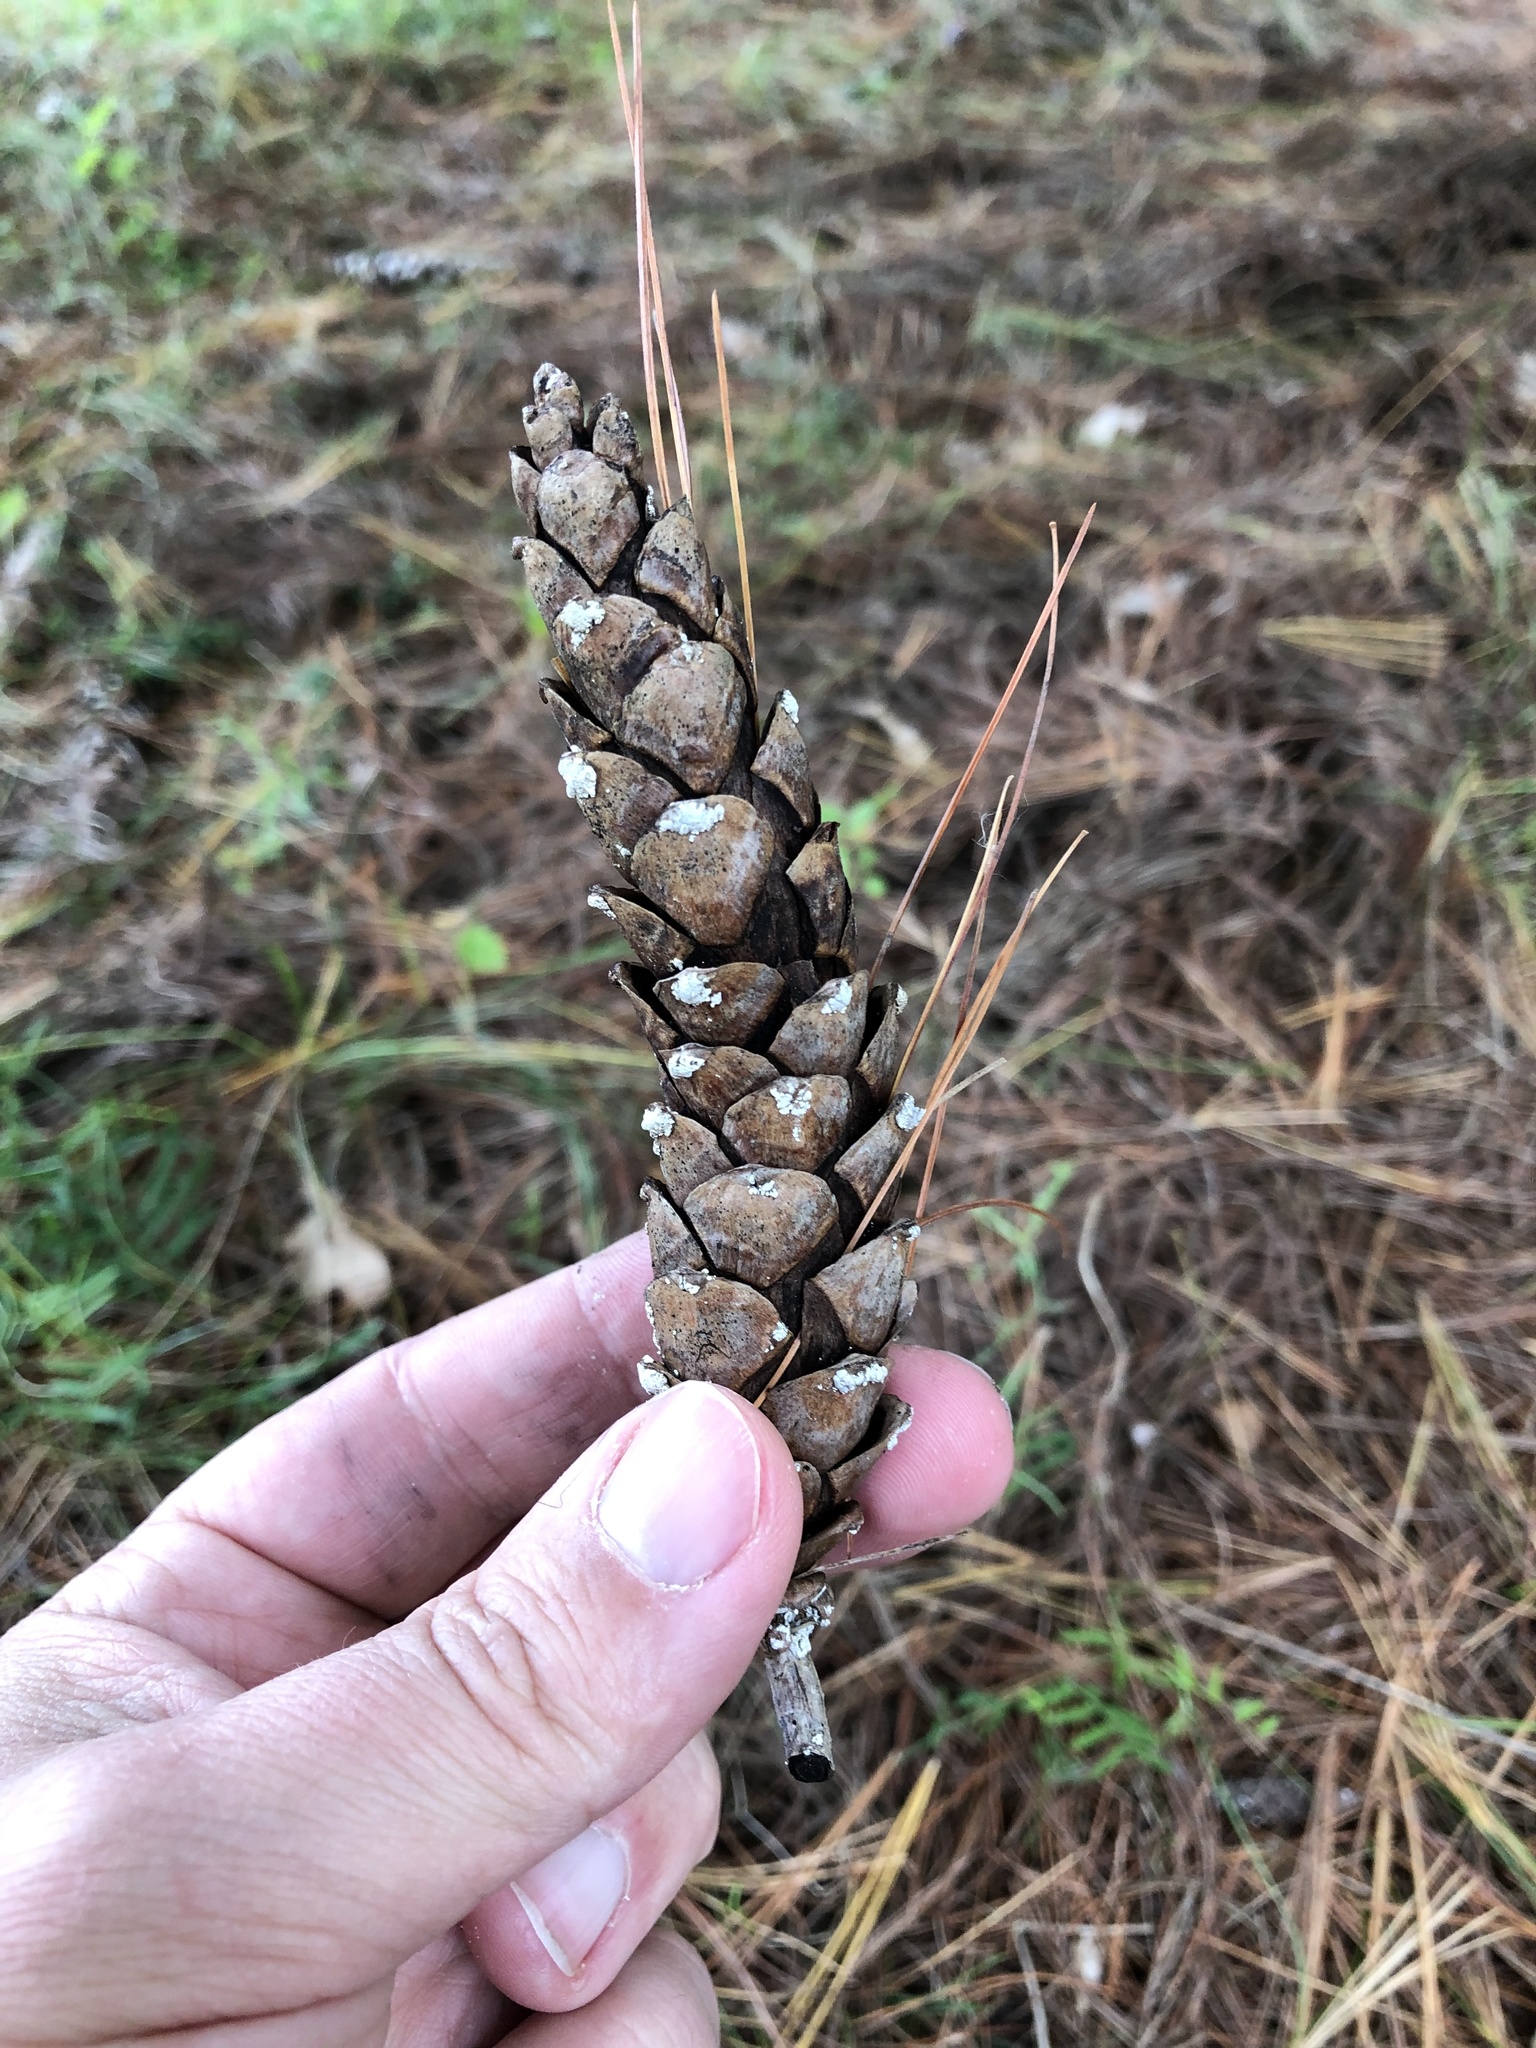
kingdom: Plantae
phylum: Tracheophyta
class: Pinopsida
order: Pinales
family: Pinaceae
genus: Pinus
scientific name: Pinus strobus
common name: Weymouth pine
